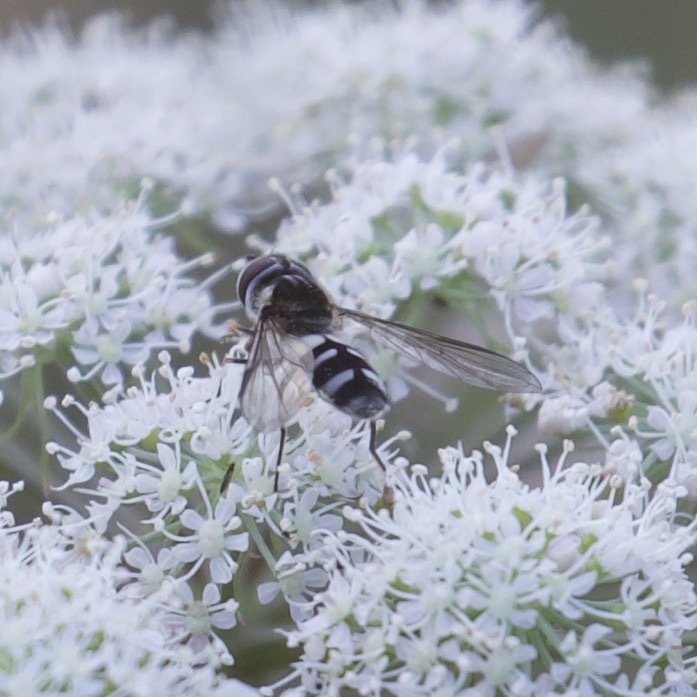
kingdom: Animalia
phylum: Arthropoda
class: Insecta
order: Diptera
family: Syrphidae
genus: Leucozona
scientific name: Leucozona laternaria
